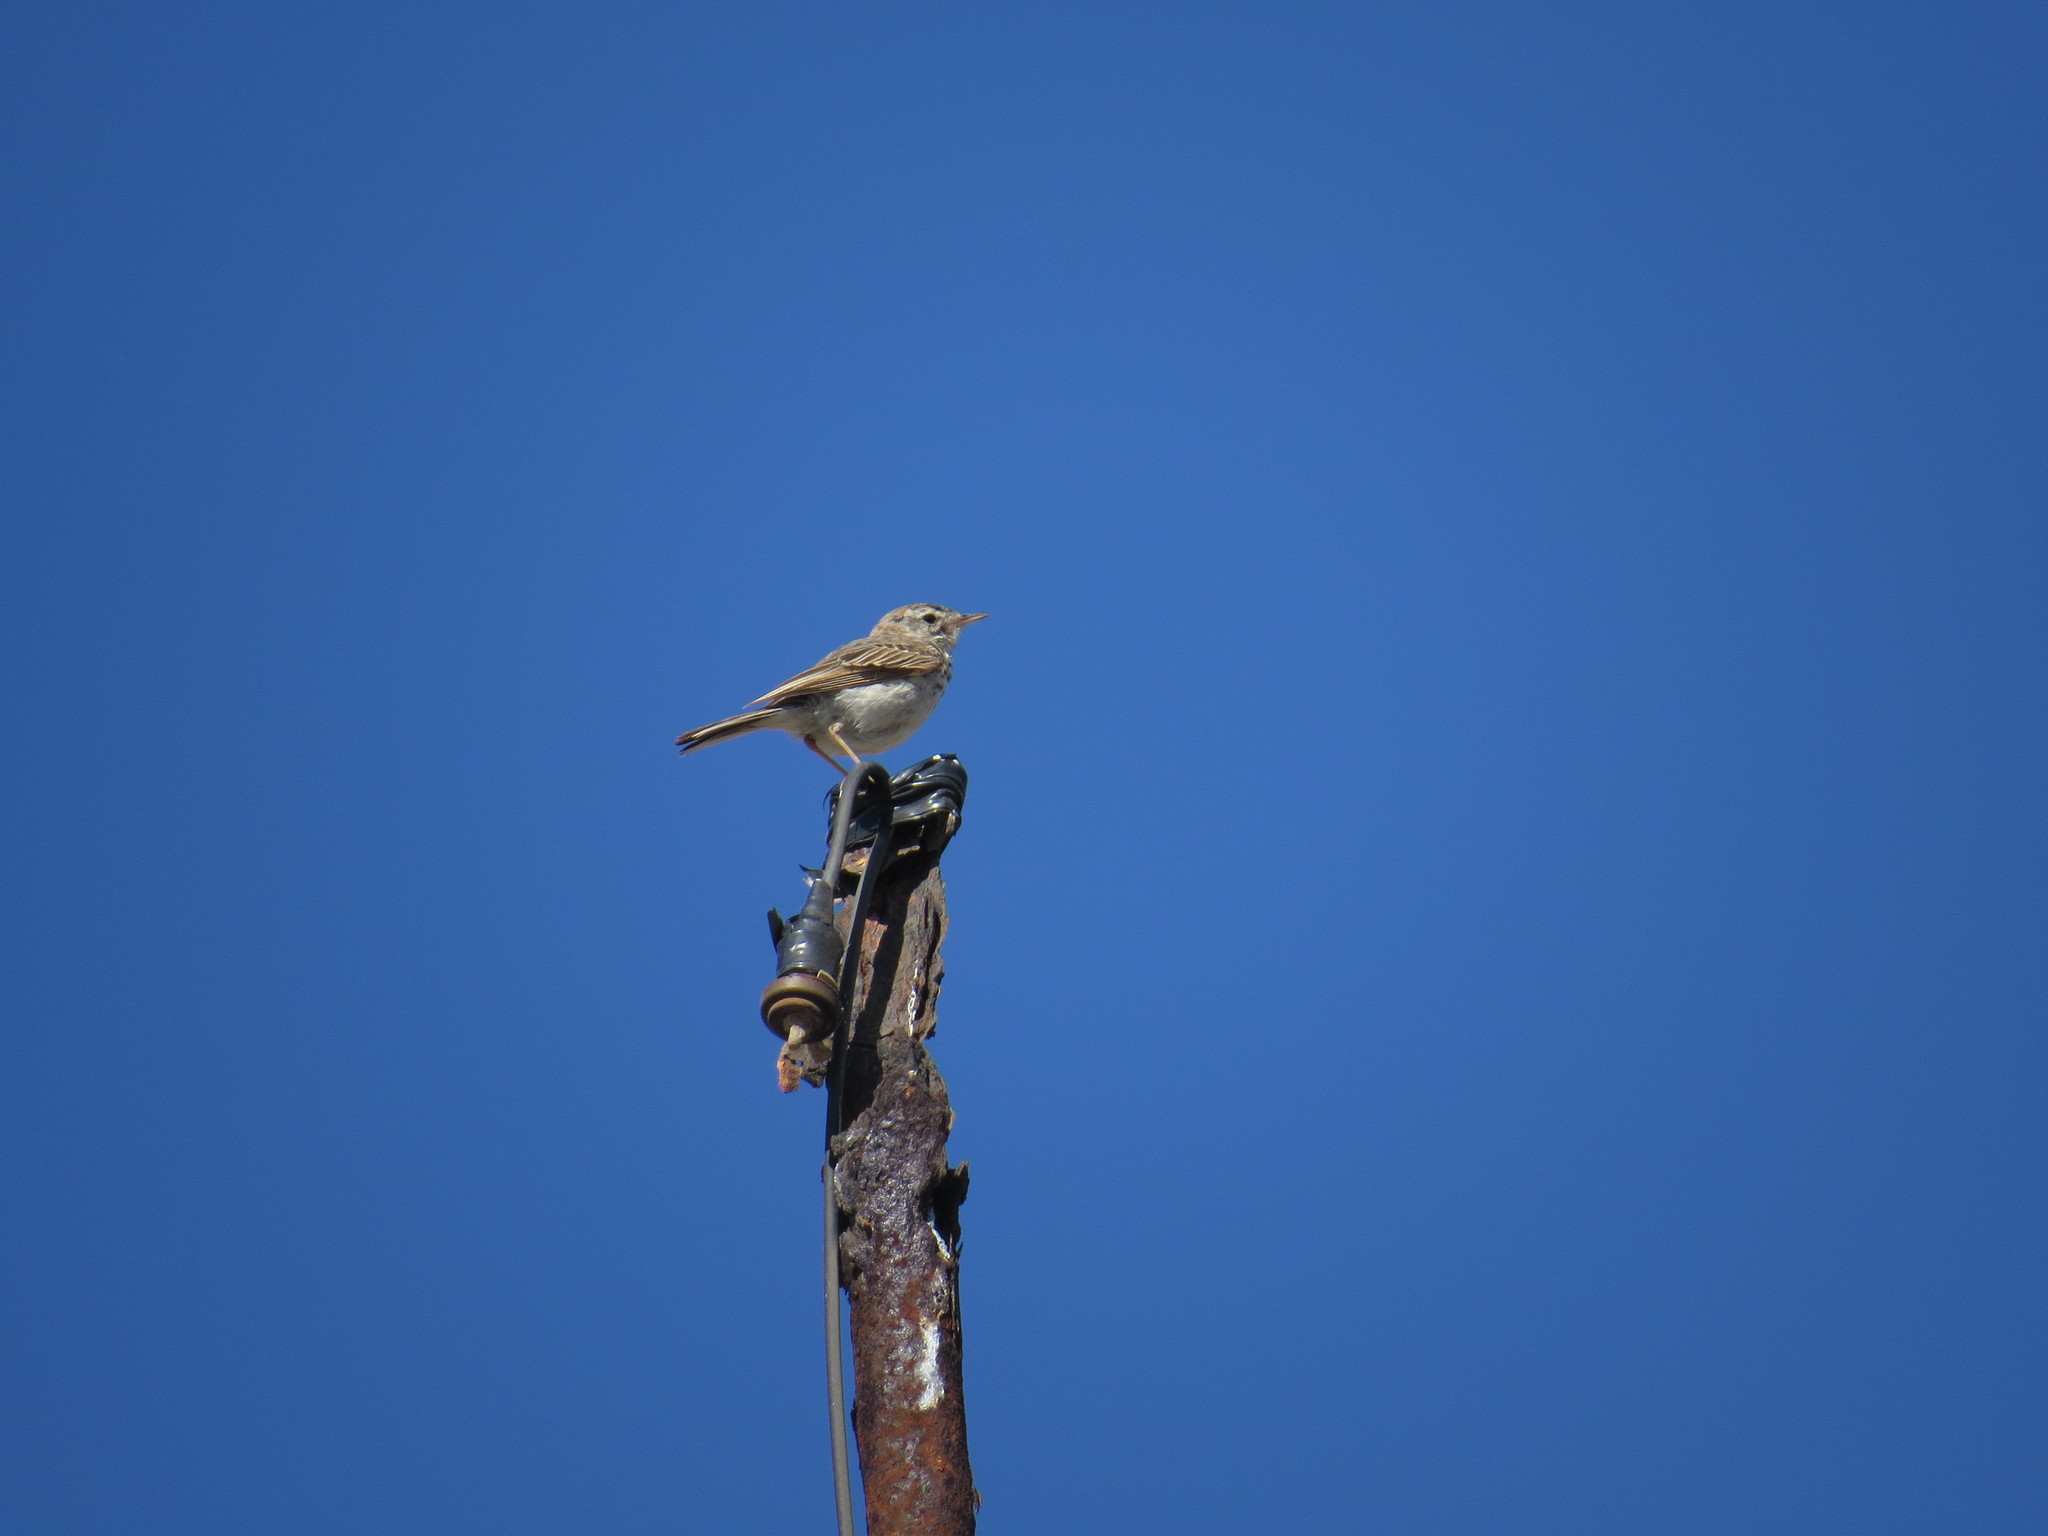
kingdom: Animalia
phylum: Chordata
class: Aves
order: Passeriformes
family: Motacillidae
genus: Anthus
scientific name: Anthus berthelotii
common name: Berthelot's pipit
